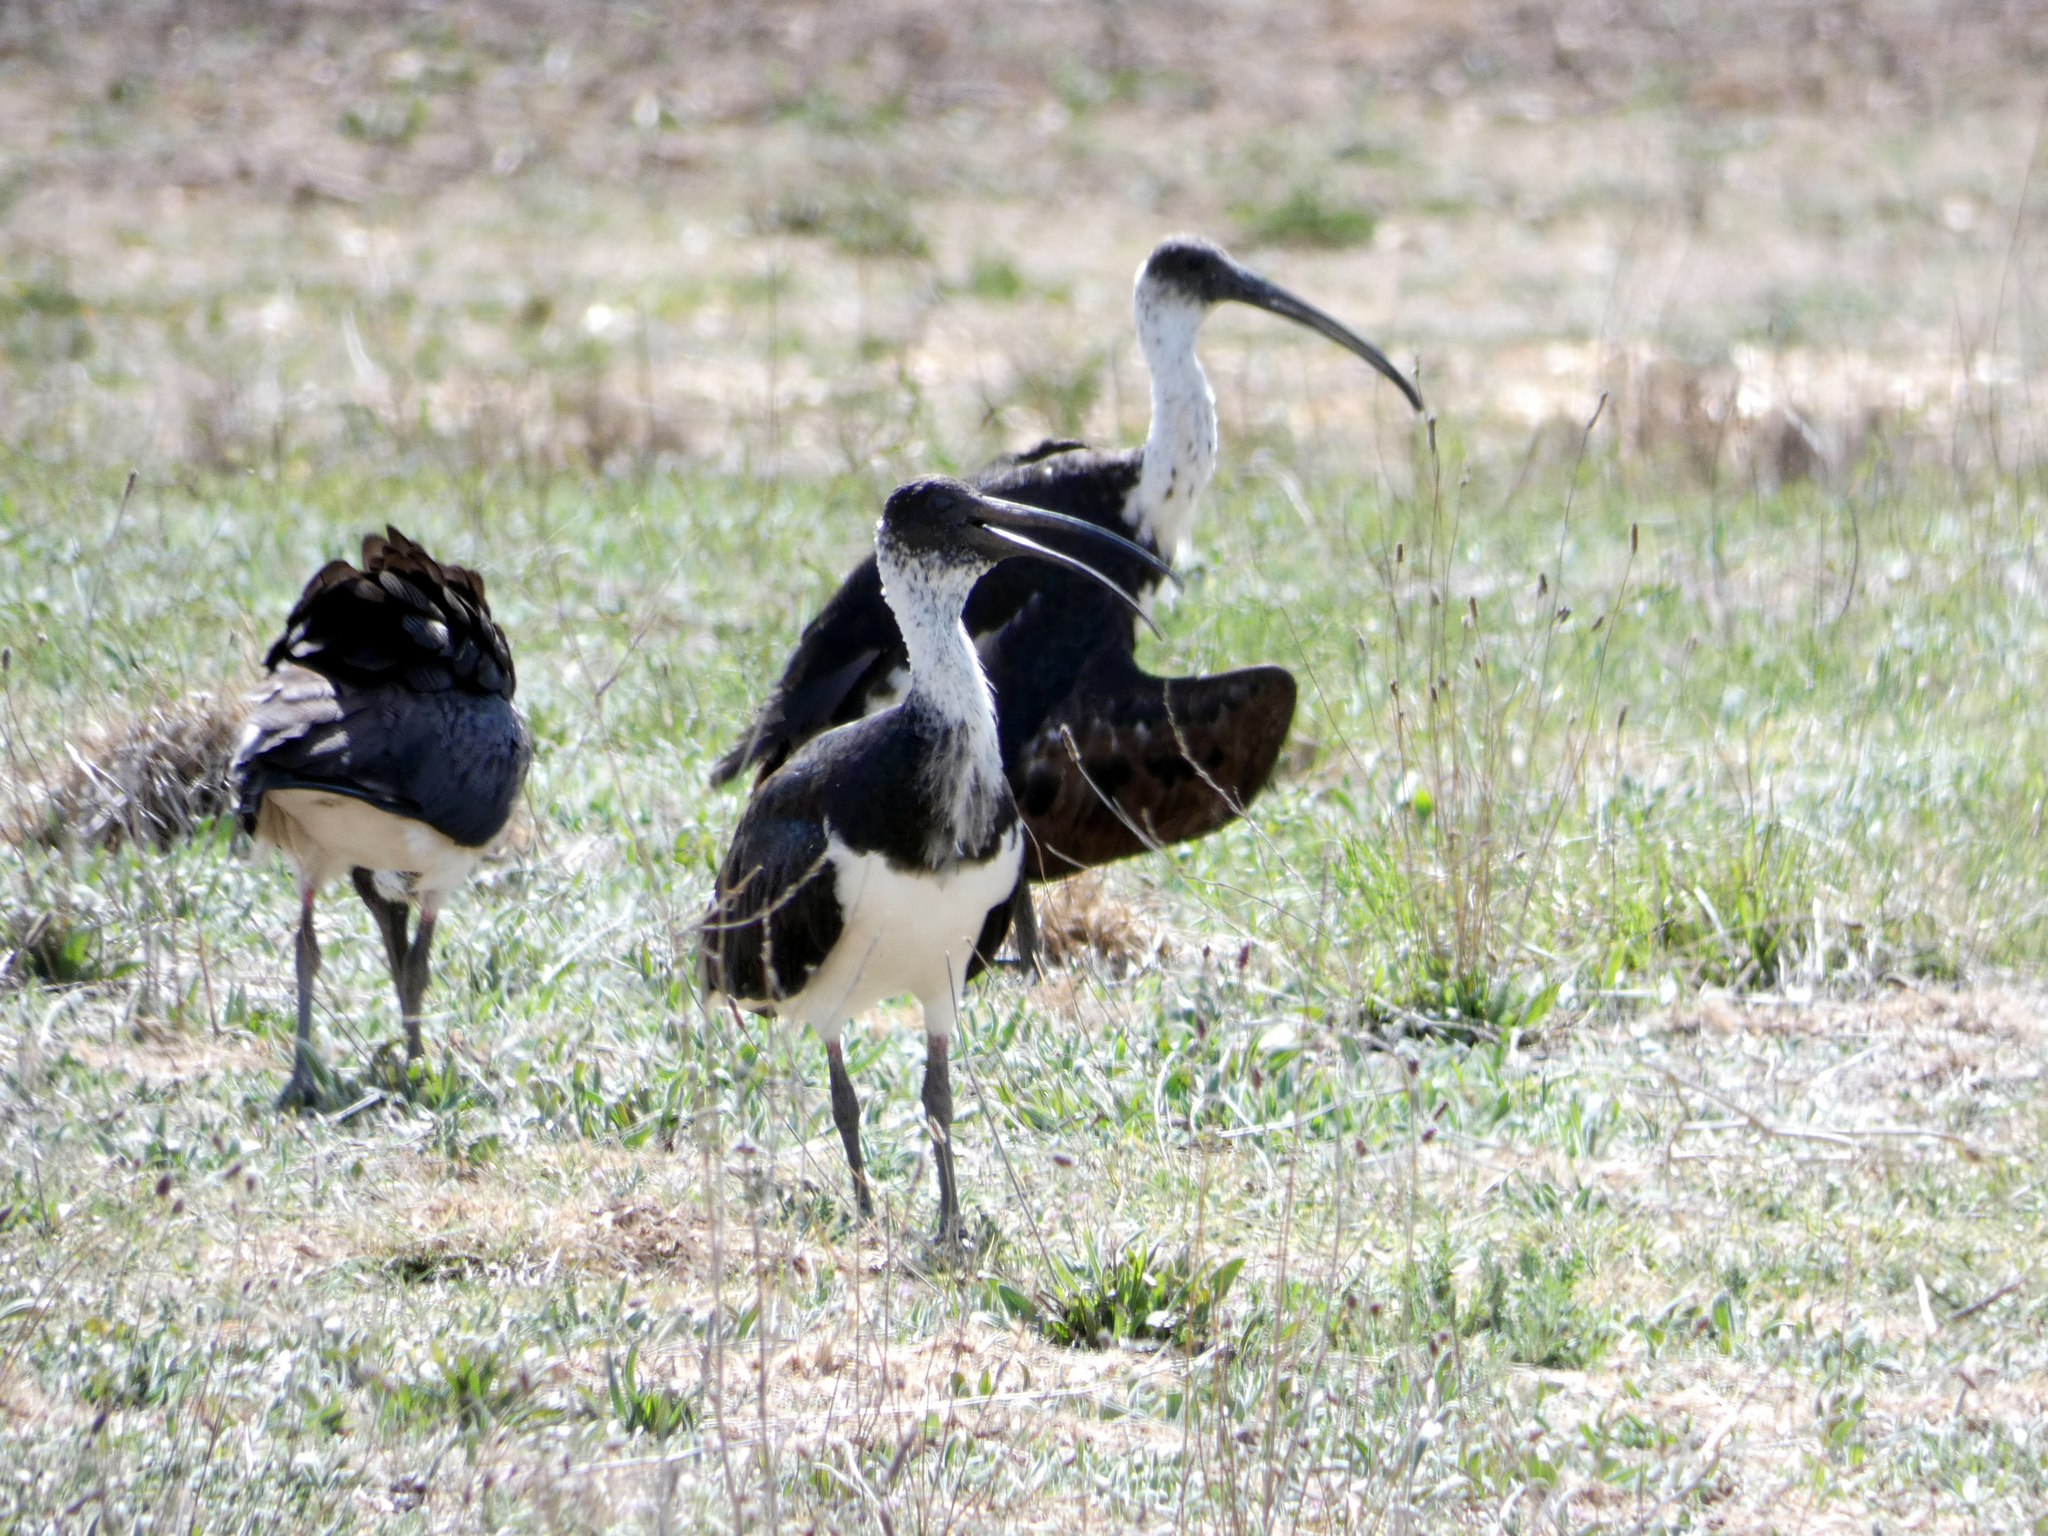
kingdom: Animalia
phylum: Chordata
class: Aves
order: Pelecaniformes
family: Threskiornithidae
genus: Threskiornis
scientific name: Threskiornis spinicollis
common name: Straw-necked ibis
